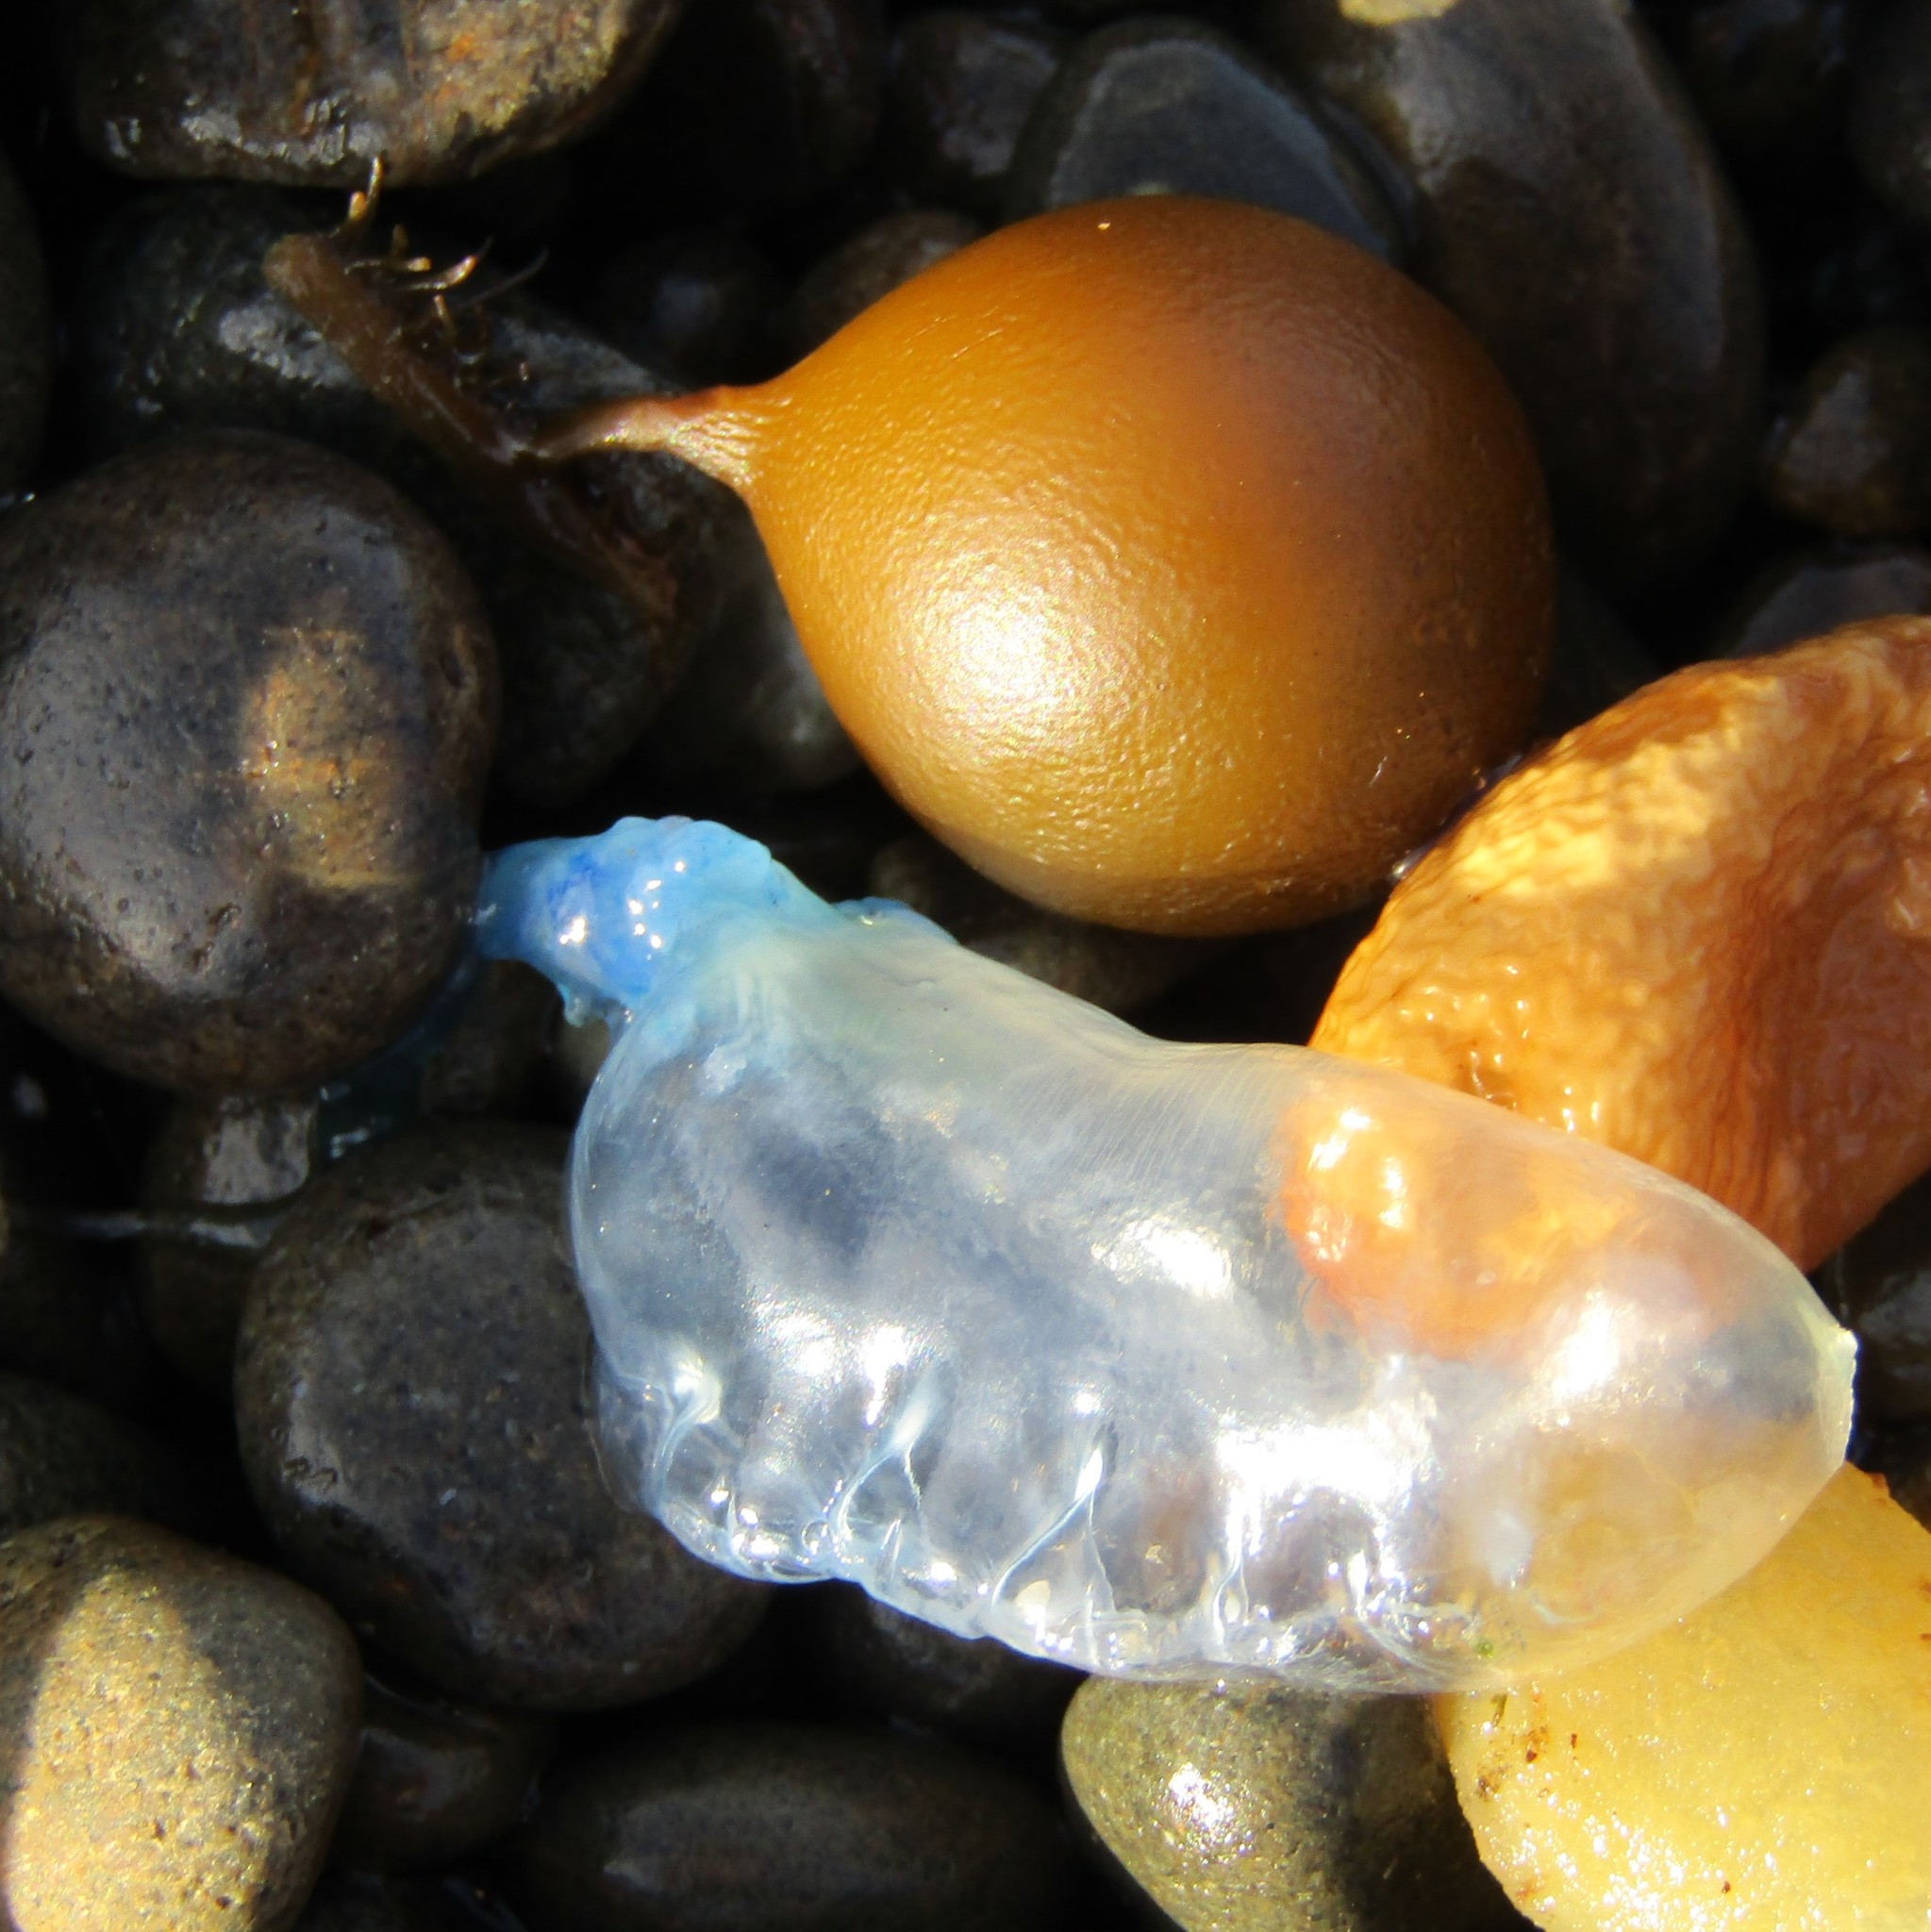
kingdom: Animalia
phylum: Cnidaria
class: Hydrozoa
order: Siphonophorae
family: Physaliidae
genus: Physalia
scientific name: Physalia physalis
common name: Portuguese man-of-war
